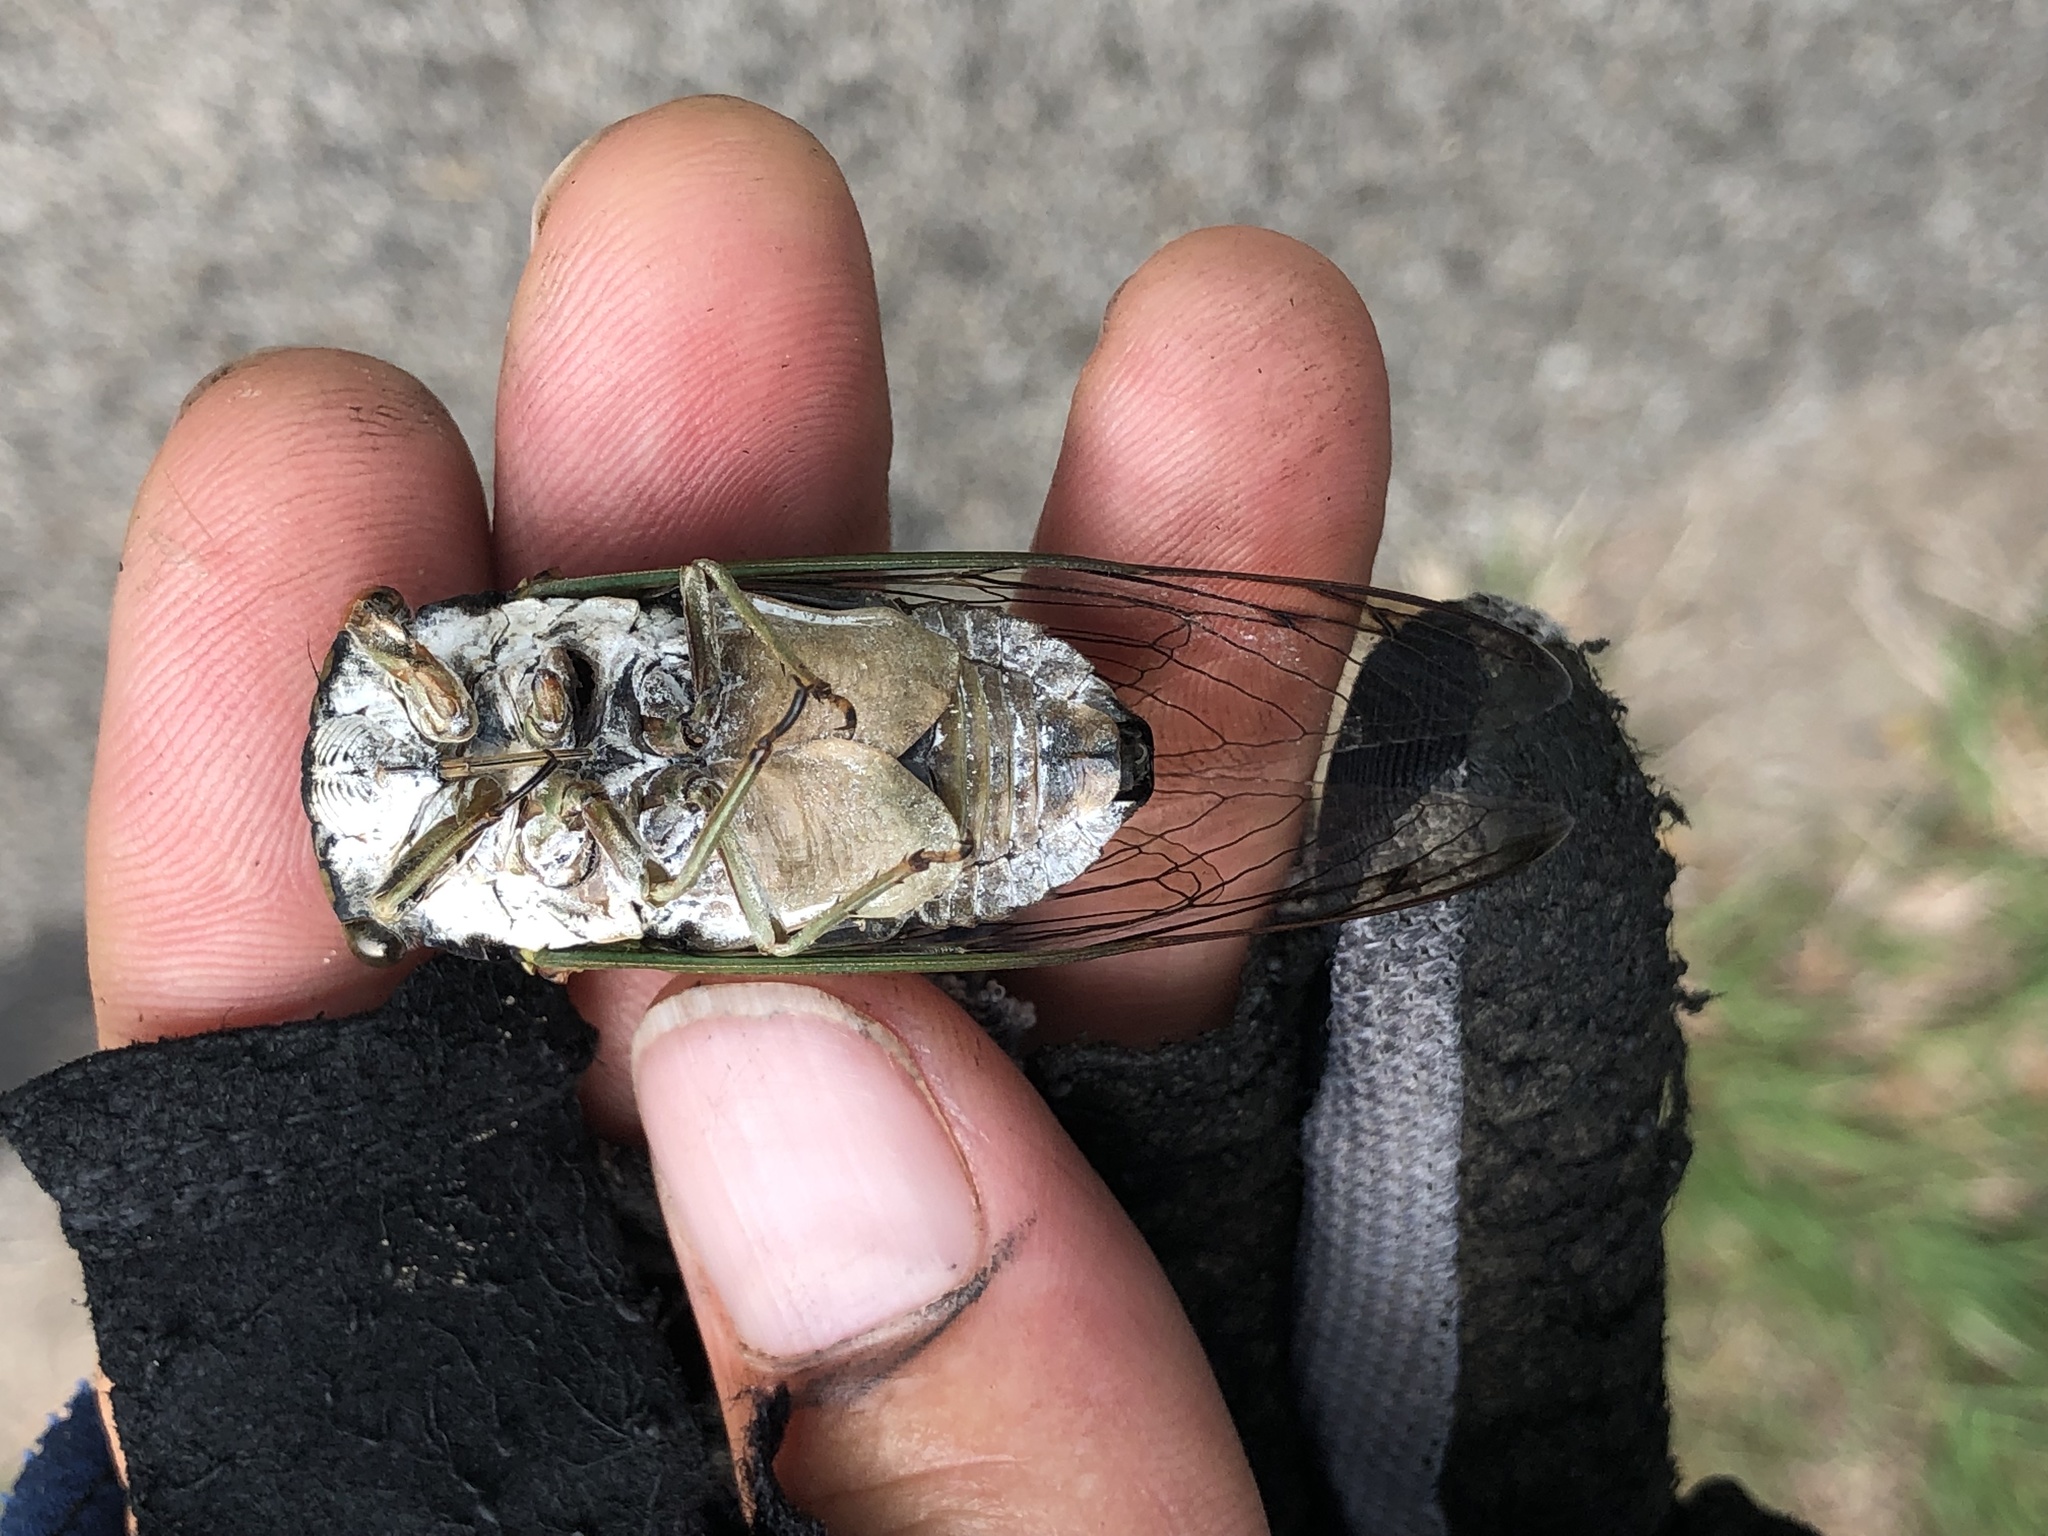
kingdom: Animalia
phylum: Arthropoda
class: Insecta
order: Hemiptera
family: Cicadidae
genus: Neotibicen
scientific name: Neotibicen tibicen
